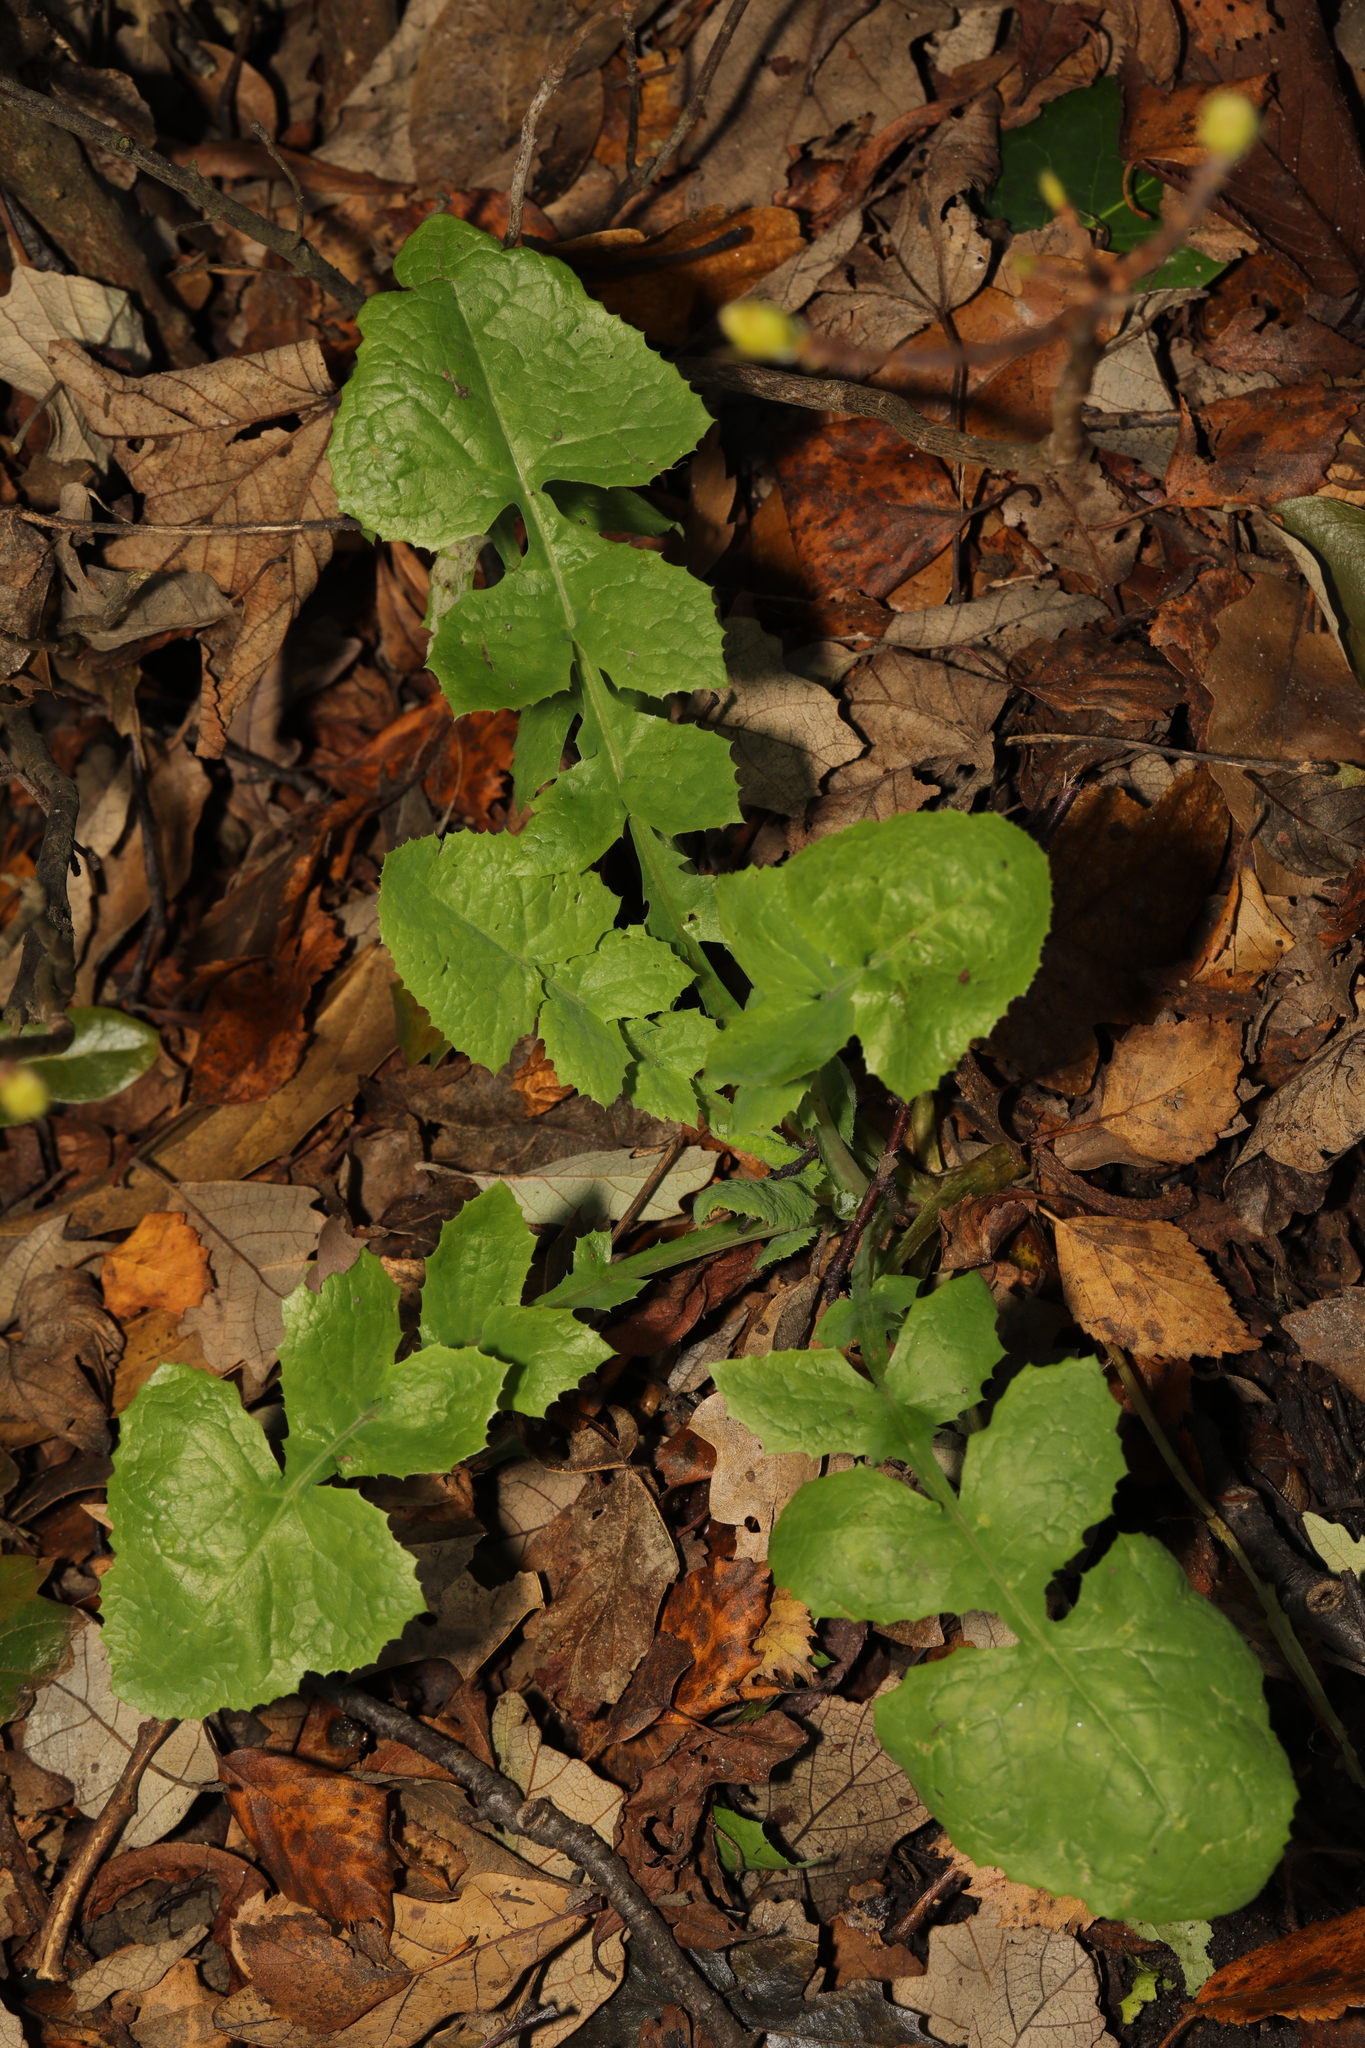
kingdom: Plantae
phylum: Tracheophyta
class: Magnoliopsida
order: Asterales
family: Asteraceae
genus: Sonchus
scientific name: Sonchus oleraceus
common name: Common sowthistle
